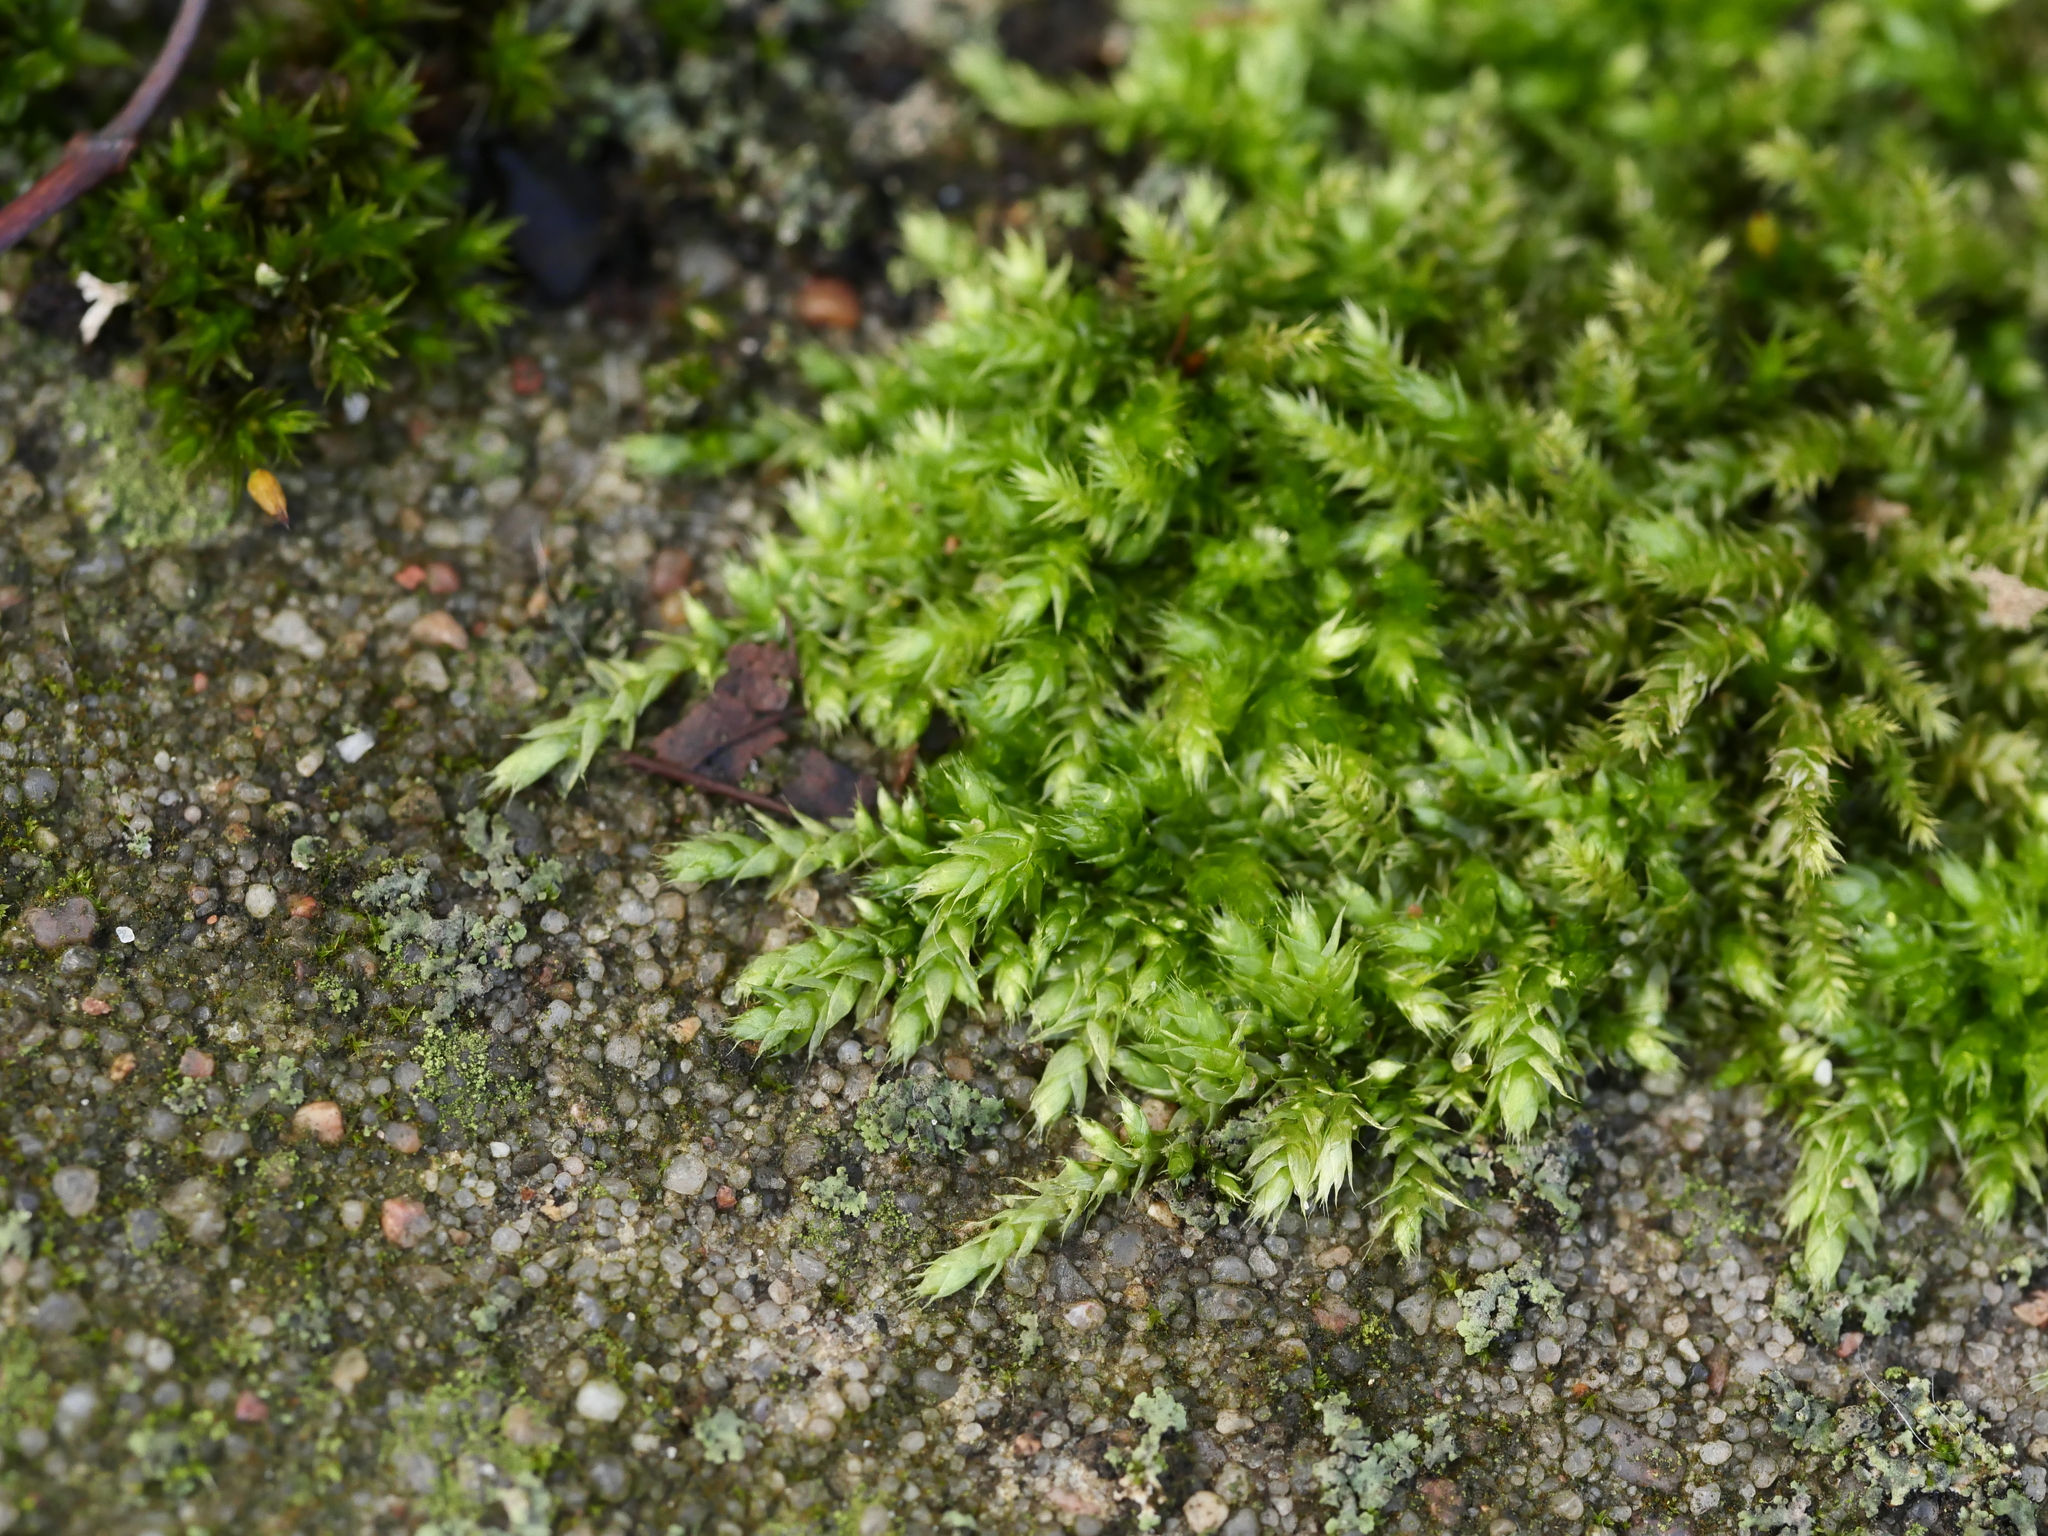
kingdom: Plantae
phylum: Bryophyta
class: Bryopsida
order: Hypnales
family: Brachytheciaceae
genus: Brachythecium
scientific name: Brachythecium rutabulum
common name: Rough-stalked feather-moss
